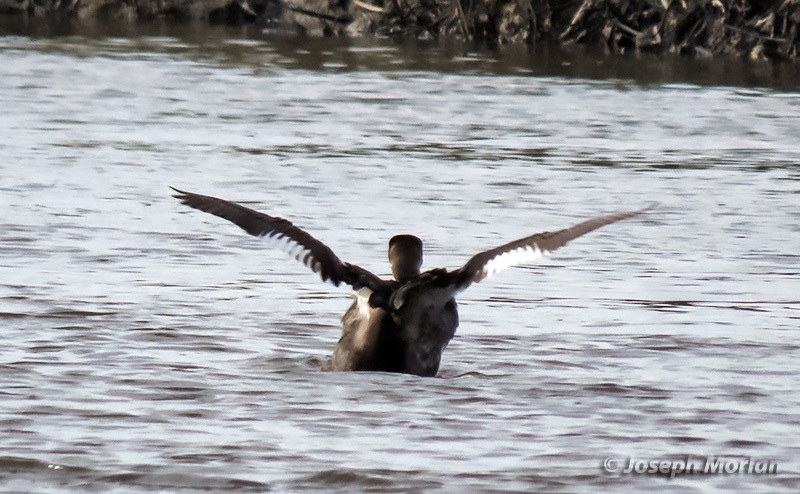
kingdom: Animalia
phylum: Chordata
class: Aves
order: Podicipediformes
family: Podicipedidae
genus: Podiceps
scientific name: Podiceps grisegena
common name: Red-necked grebe
